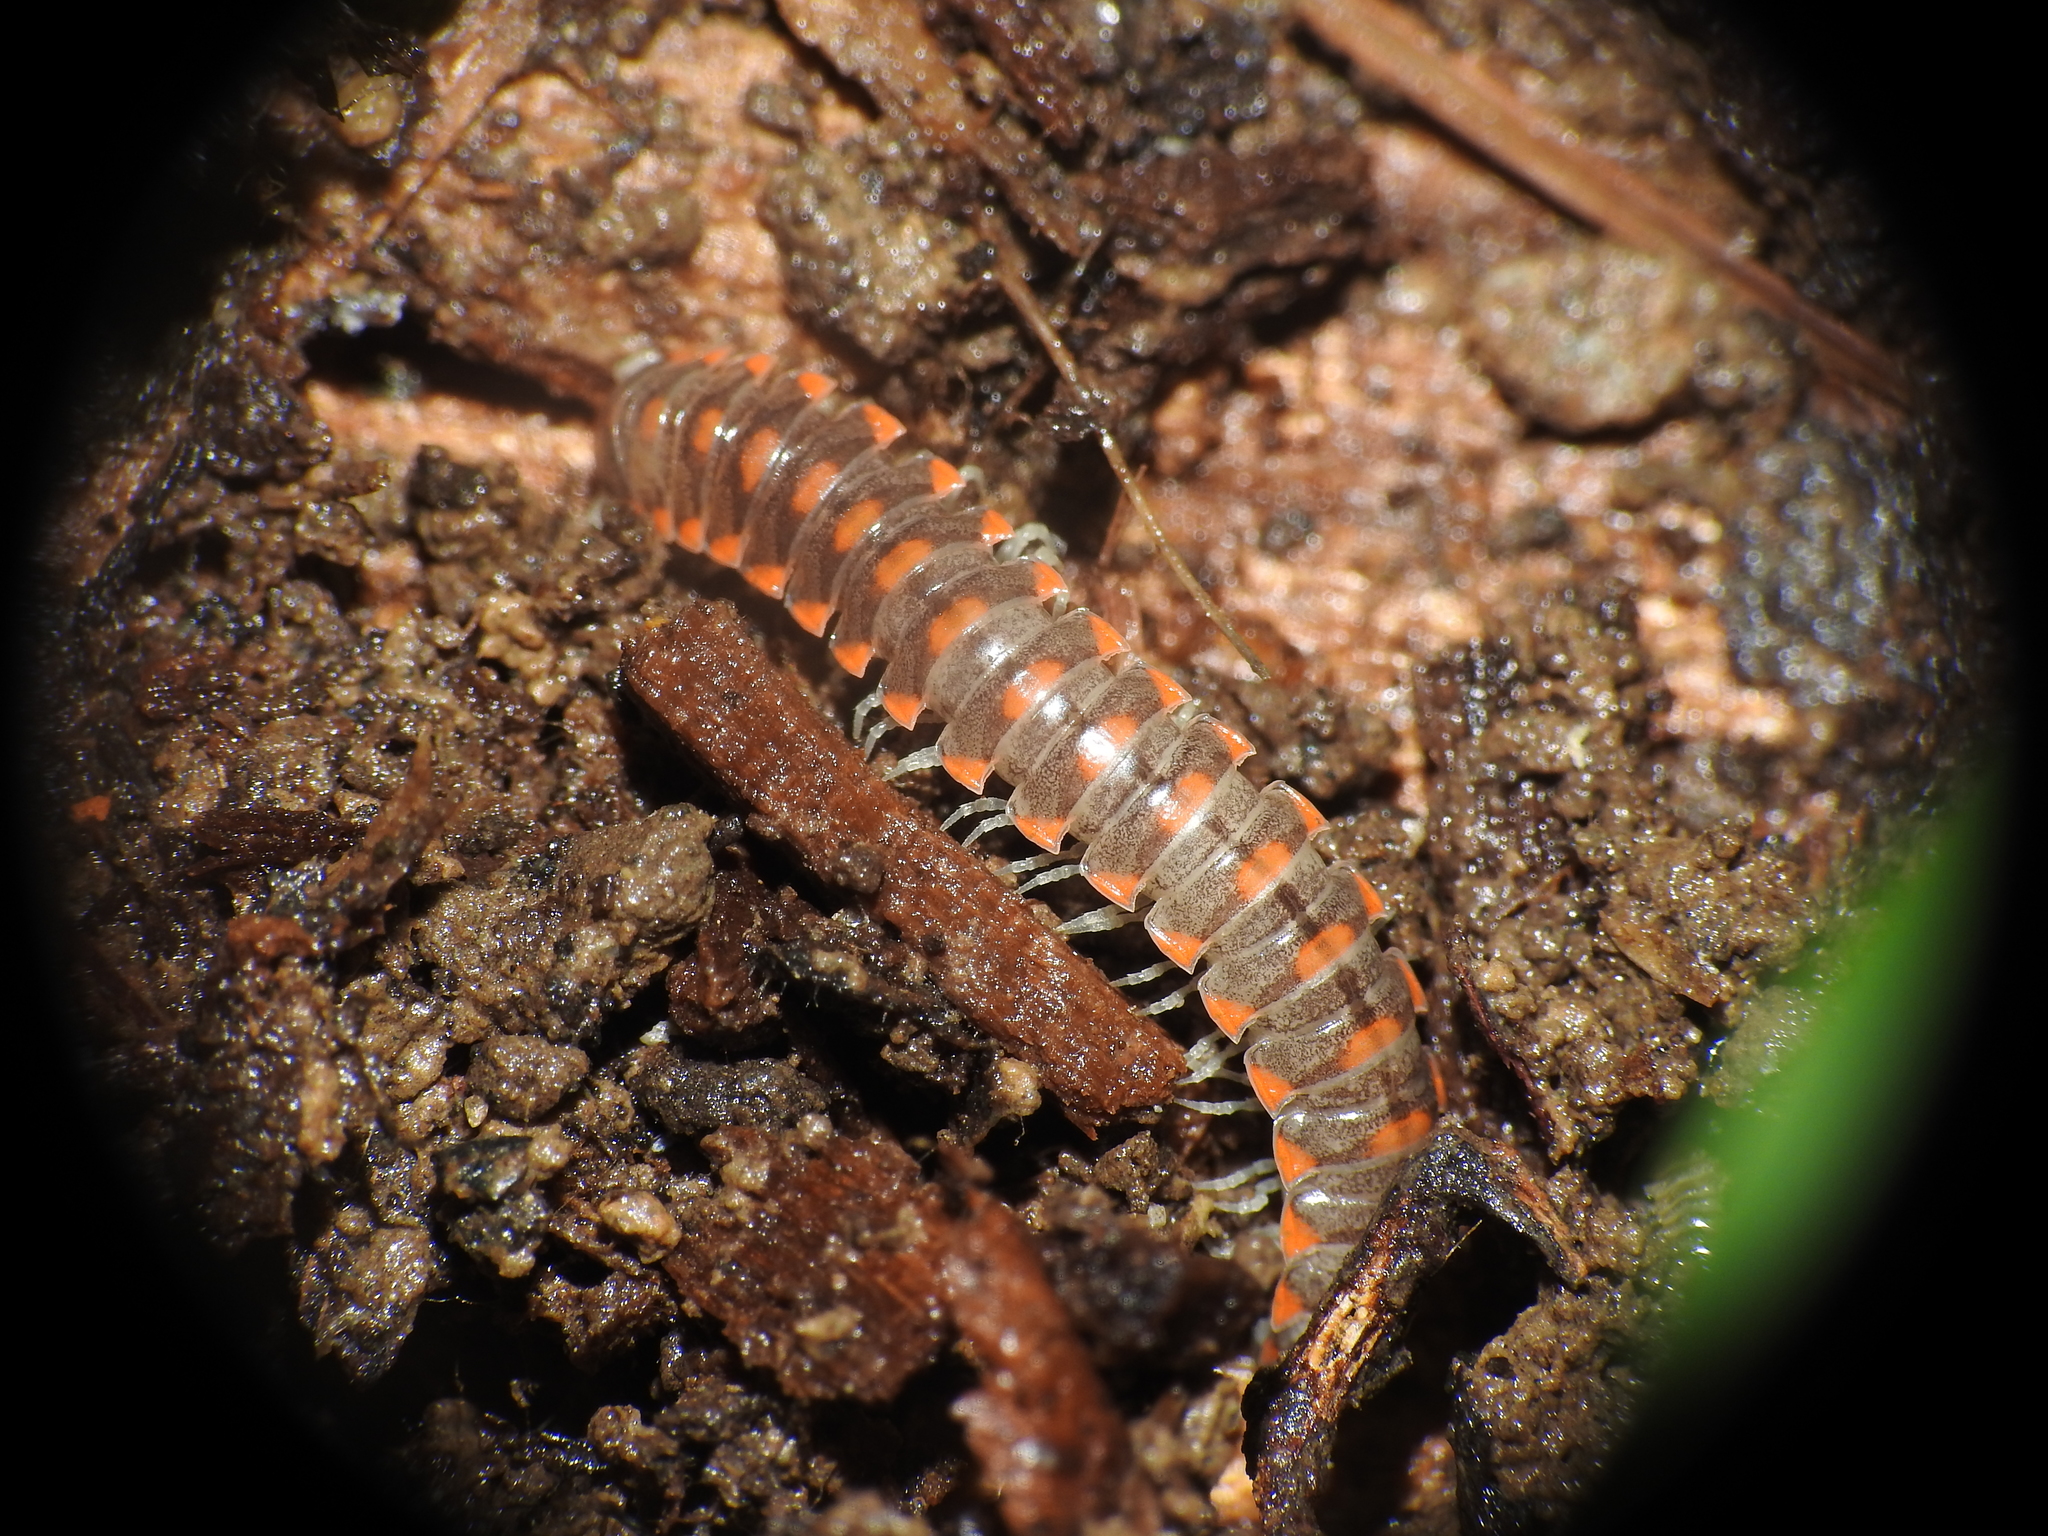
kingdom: Animalia
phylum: Arthropoda
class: Diplopoda
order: Polydesmida
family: Xystodesmidae
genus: Euryurus
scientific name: Euryurus leachii
